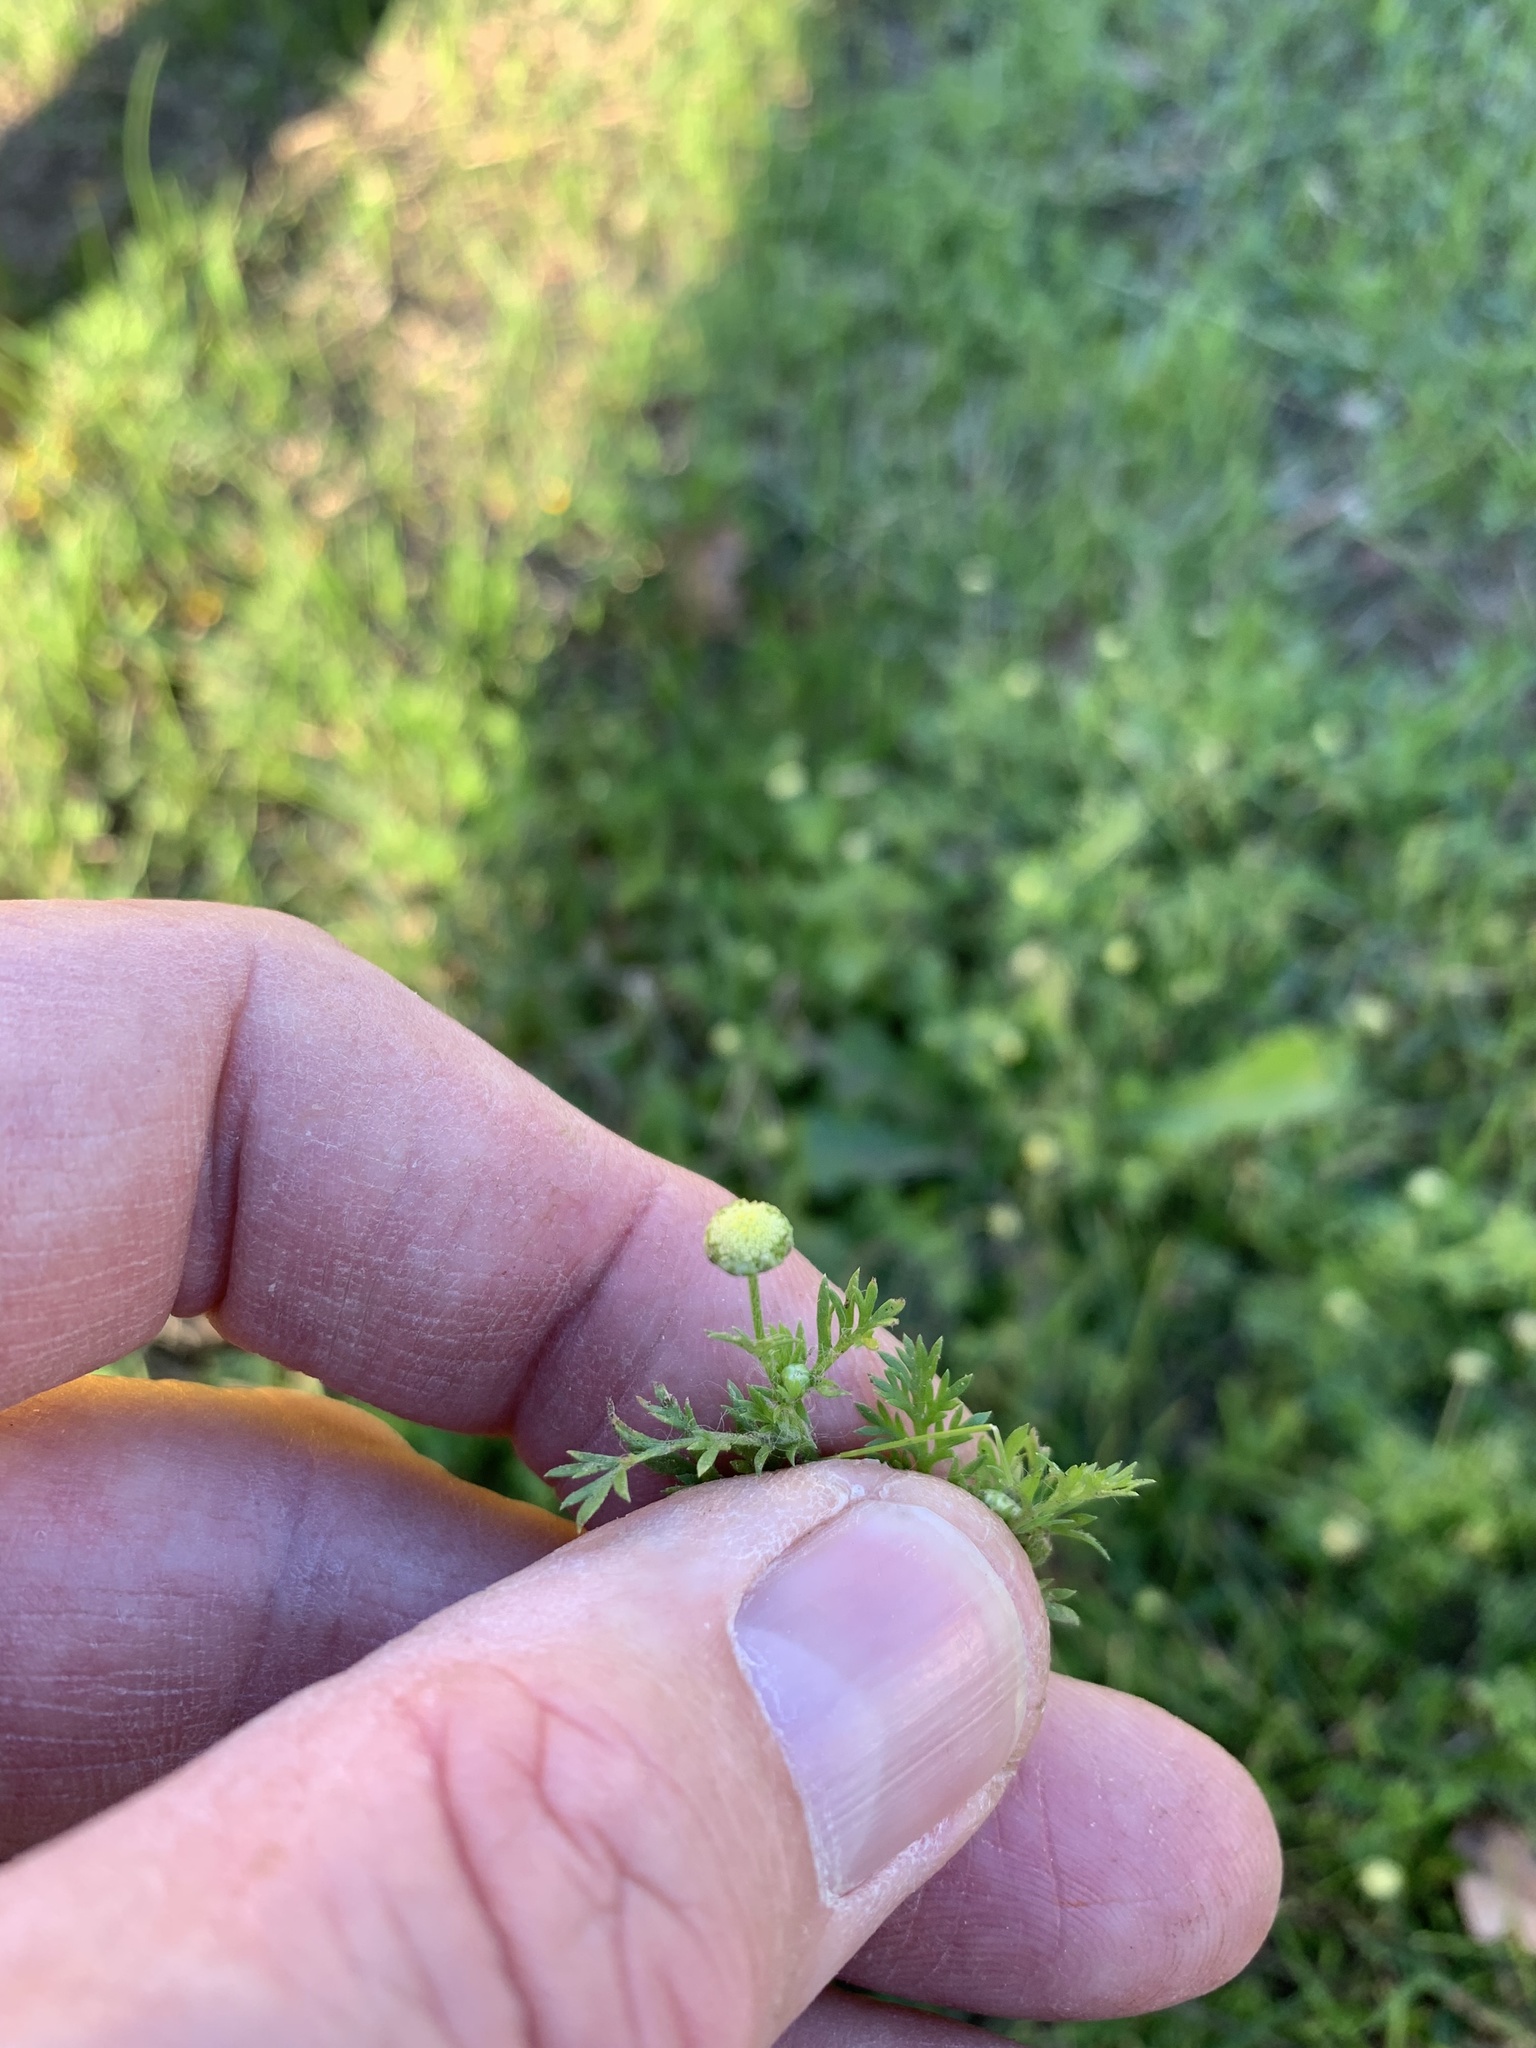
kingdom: Plantae
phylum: Tracheophyta
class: Magnoliopsida
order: Asterales
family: Asteraceae
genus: Cotula
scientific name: Cotula australis
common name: Australian waterbuttons
